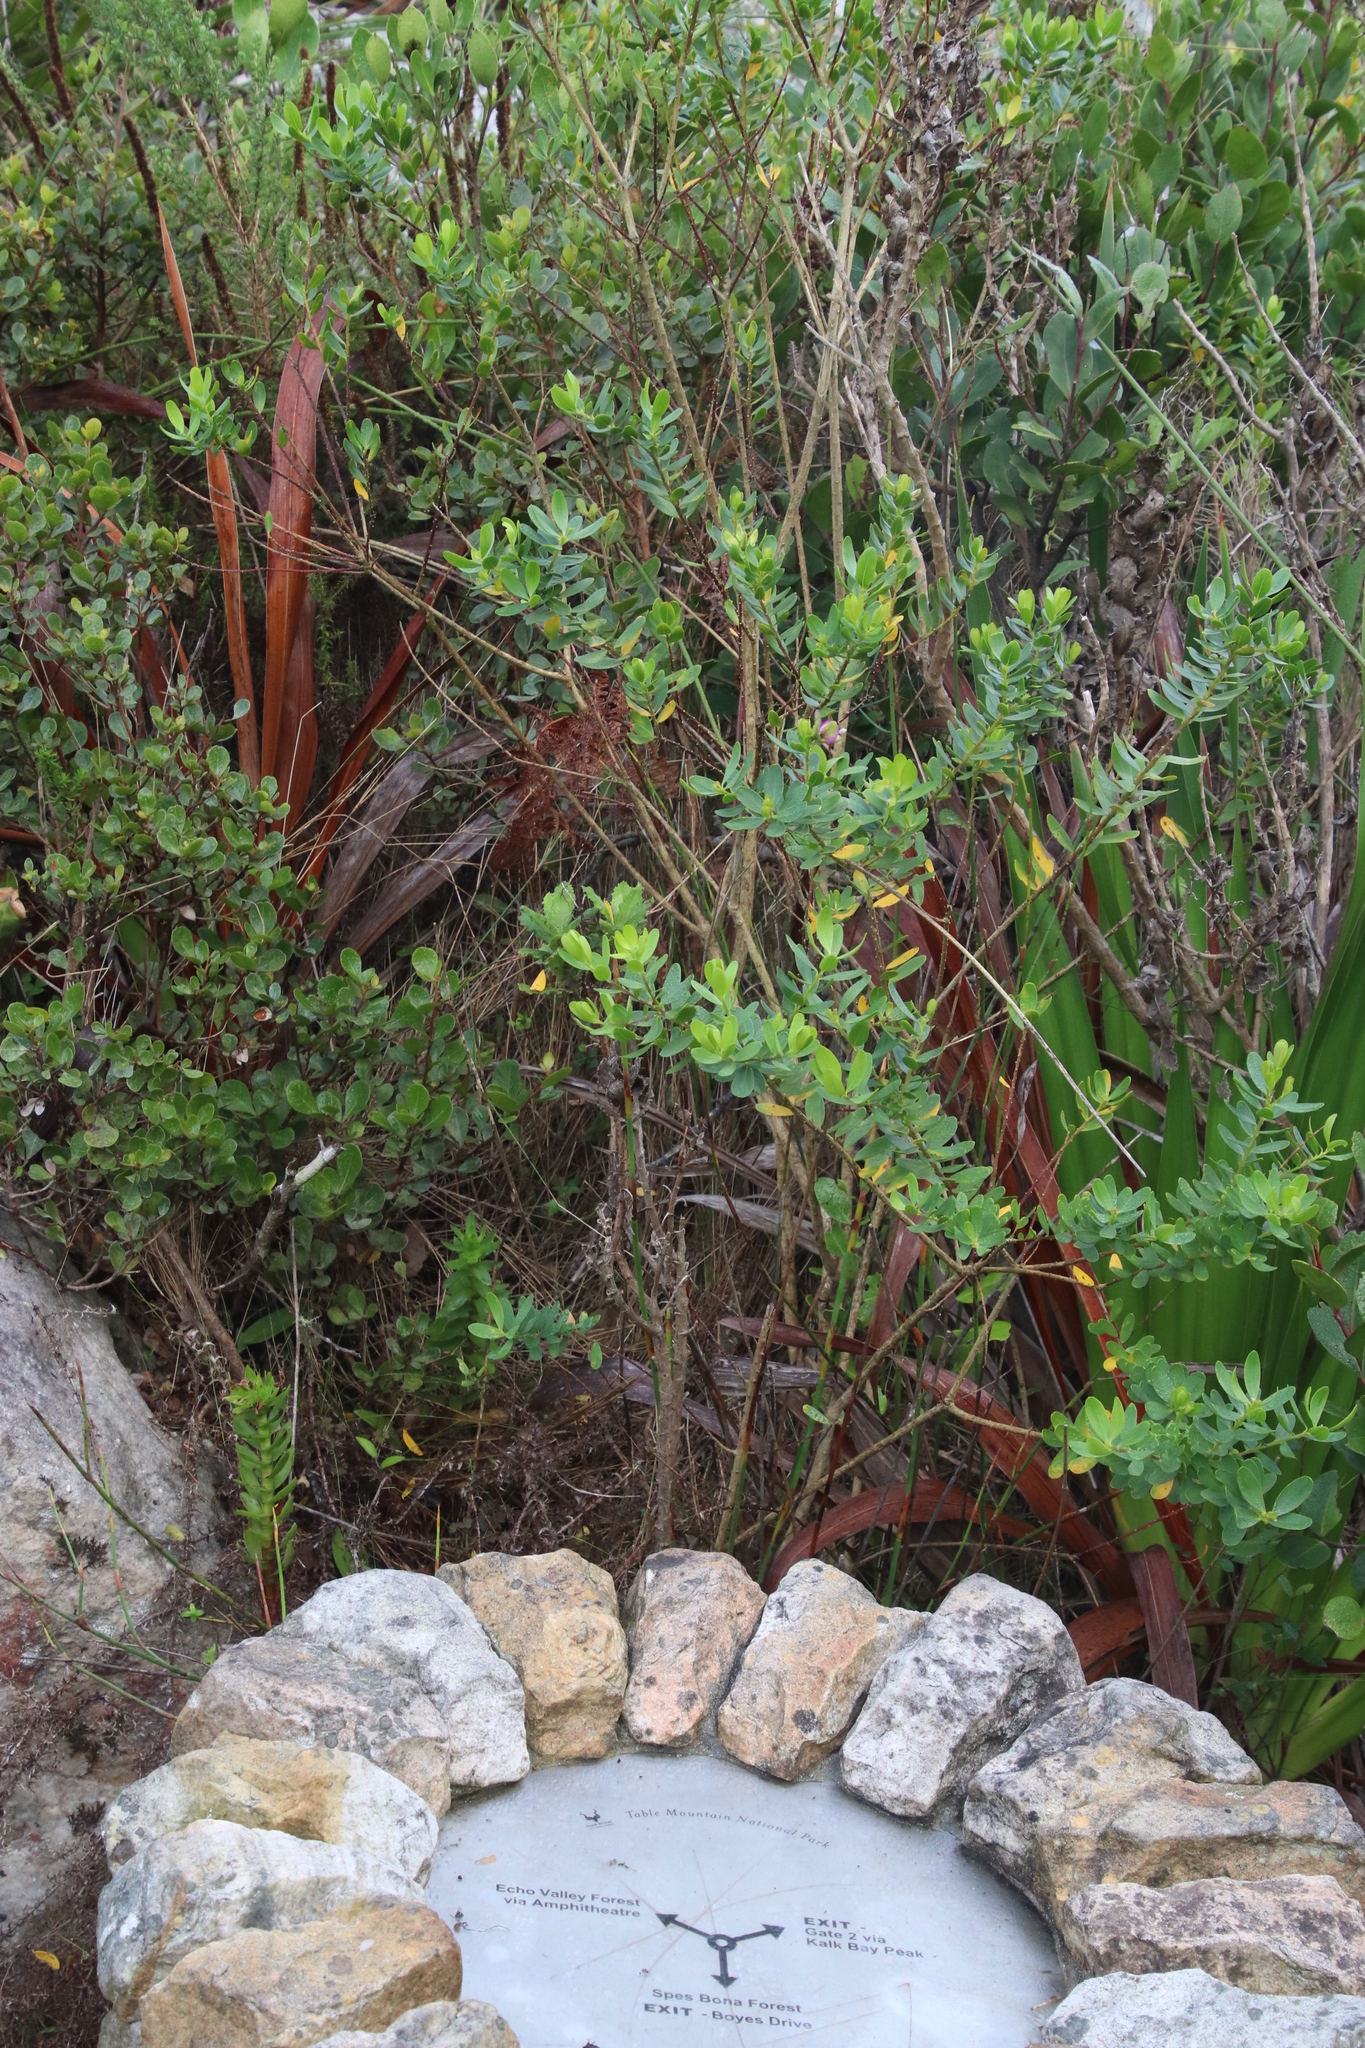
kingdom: Plantae
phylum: Tracheophyta
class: Magnoliopsida
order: Fabales
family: Polygalaceae
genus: Polygala
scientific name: Polygala myrtifolia
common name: Myrtle-leaf milkwort
